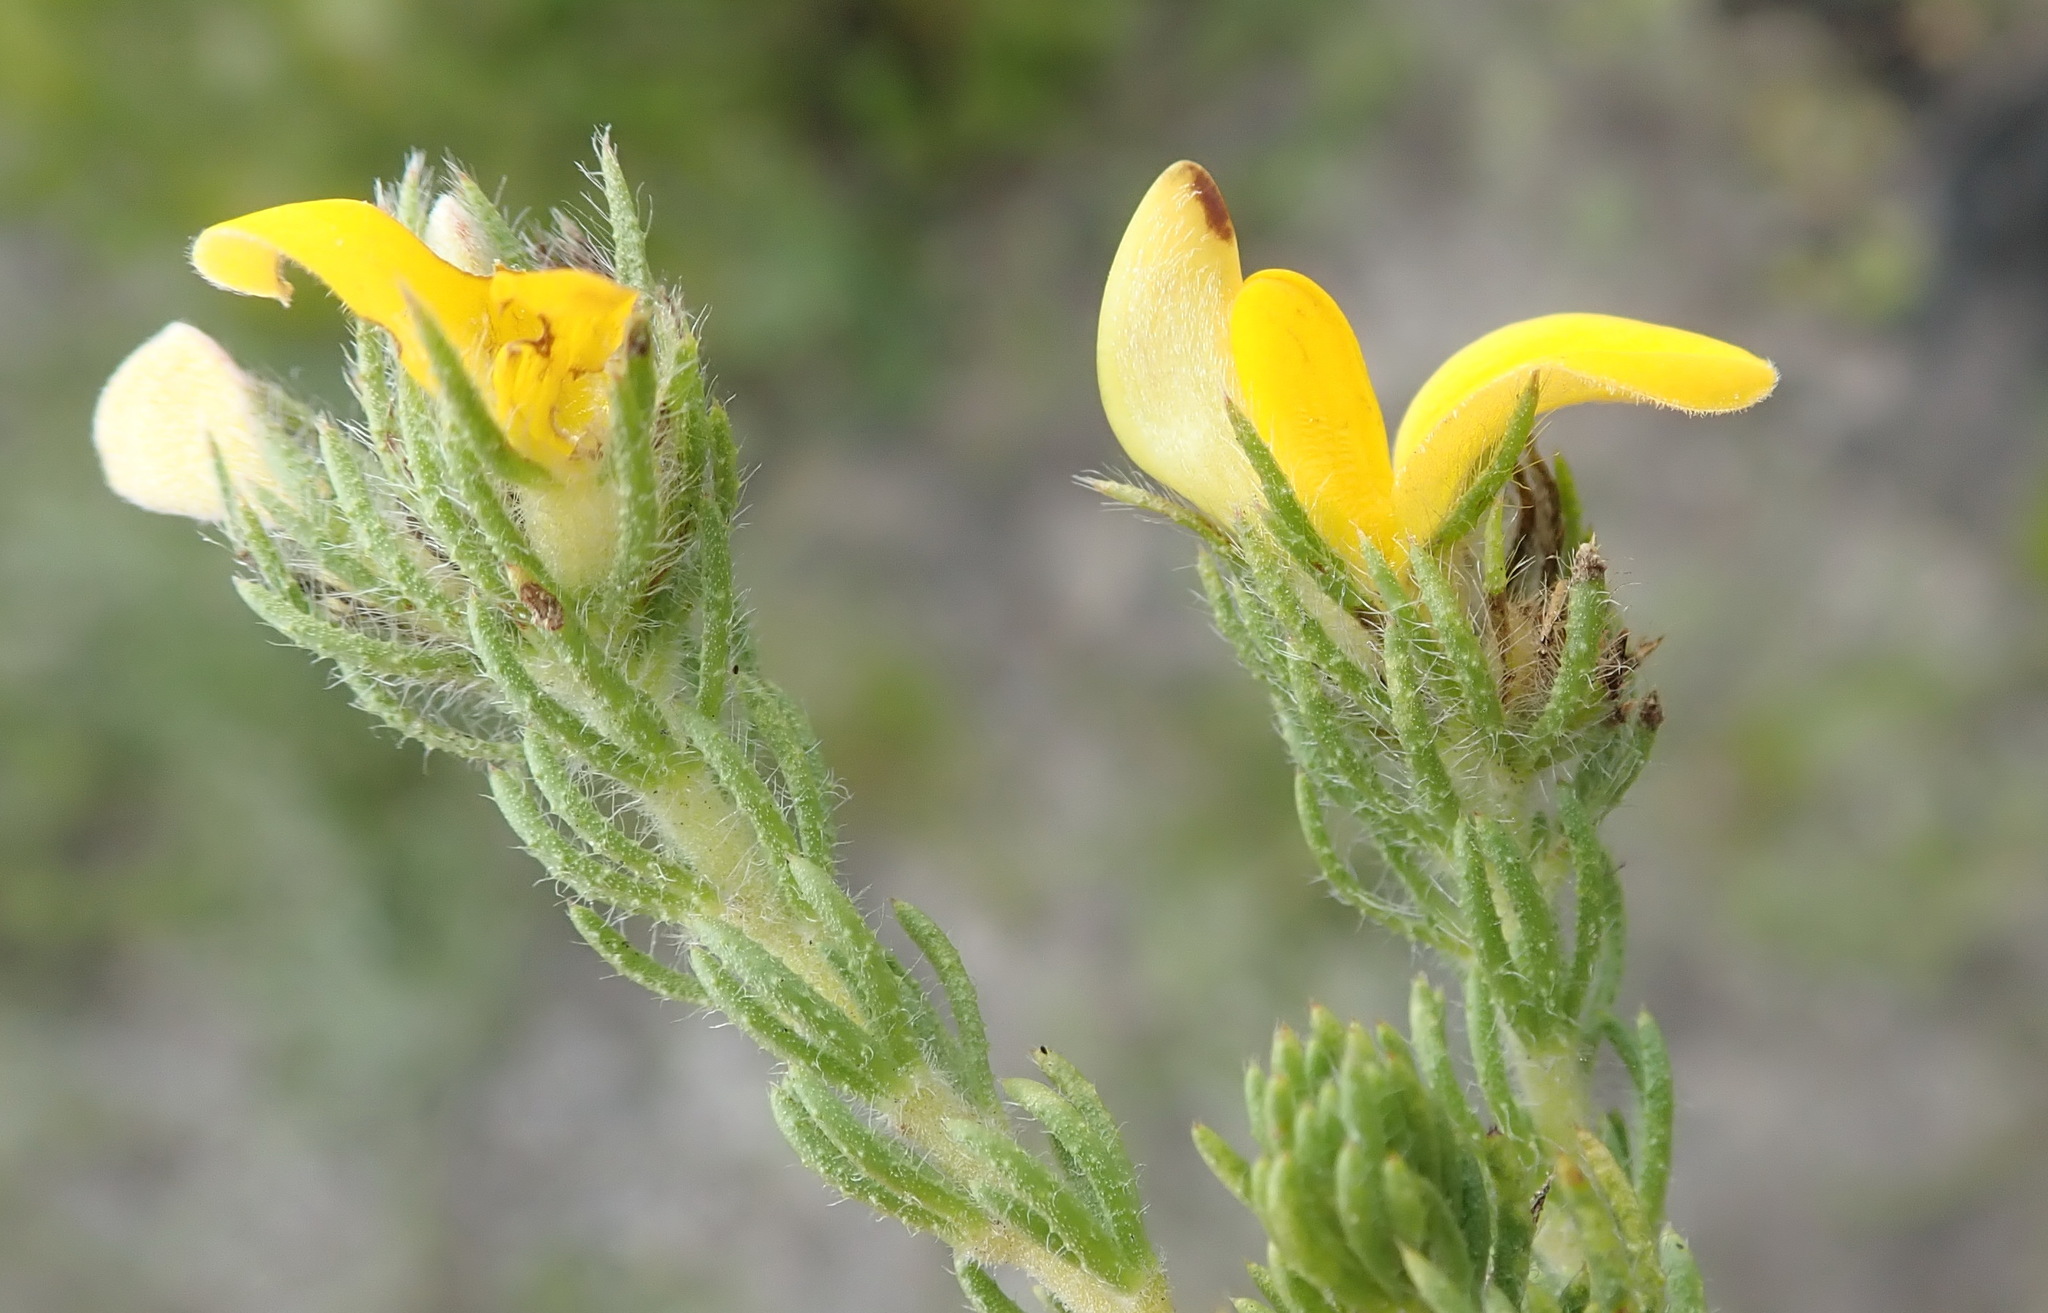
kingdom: Plantae
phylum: Tracheophyta
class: Magnoliopsida
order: Fabales
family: Fabaceae
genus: Aspalathus
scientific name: Aspalathus ciliaris
